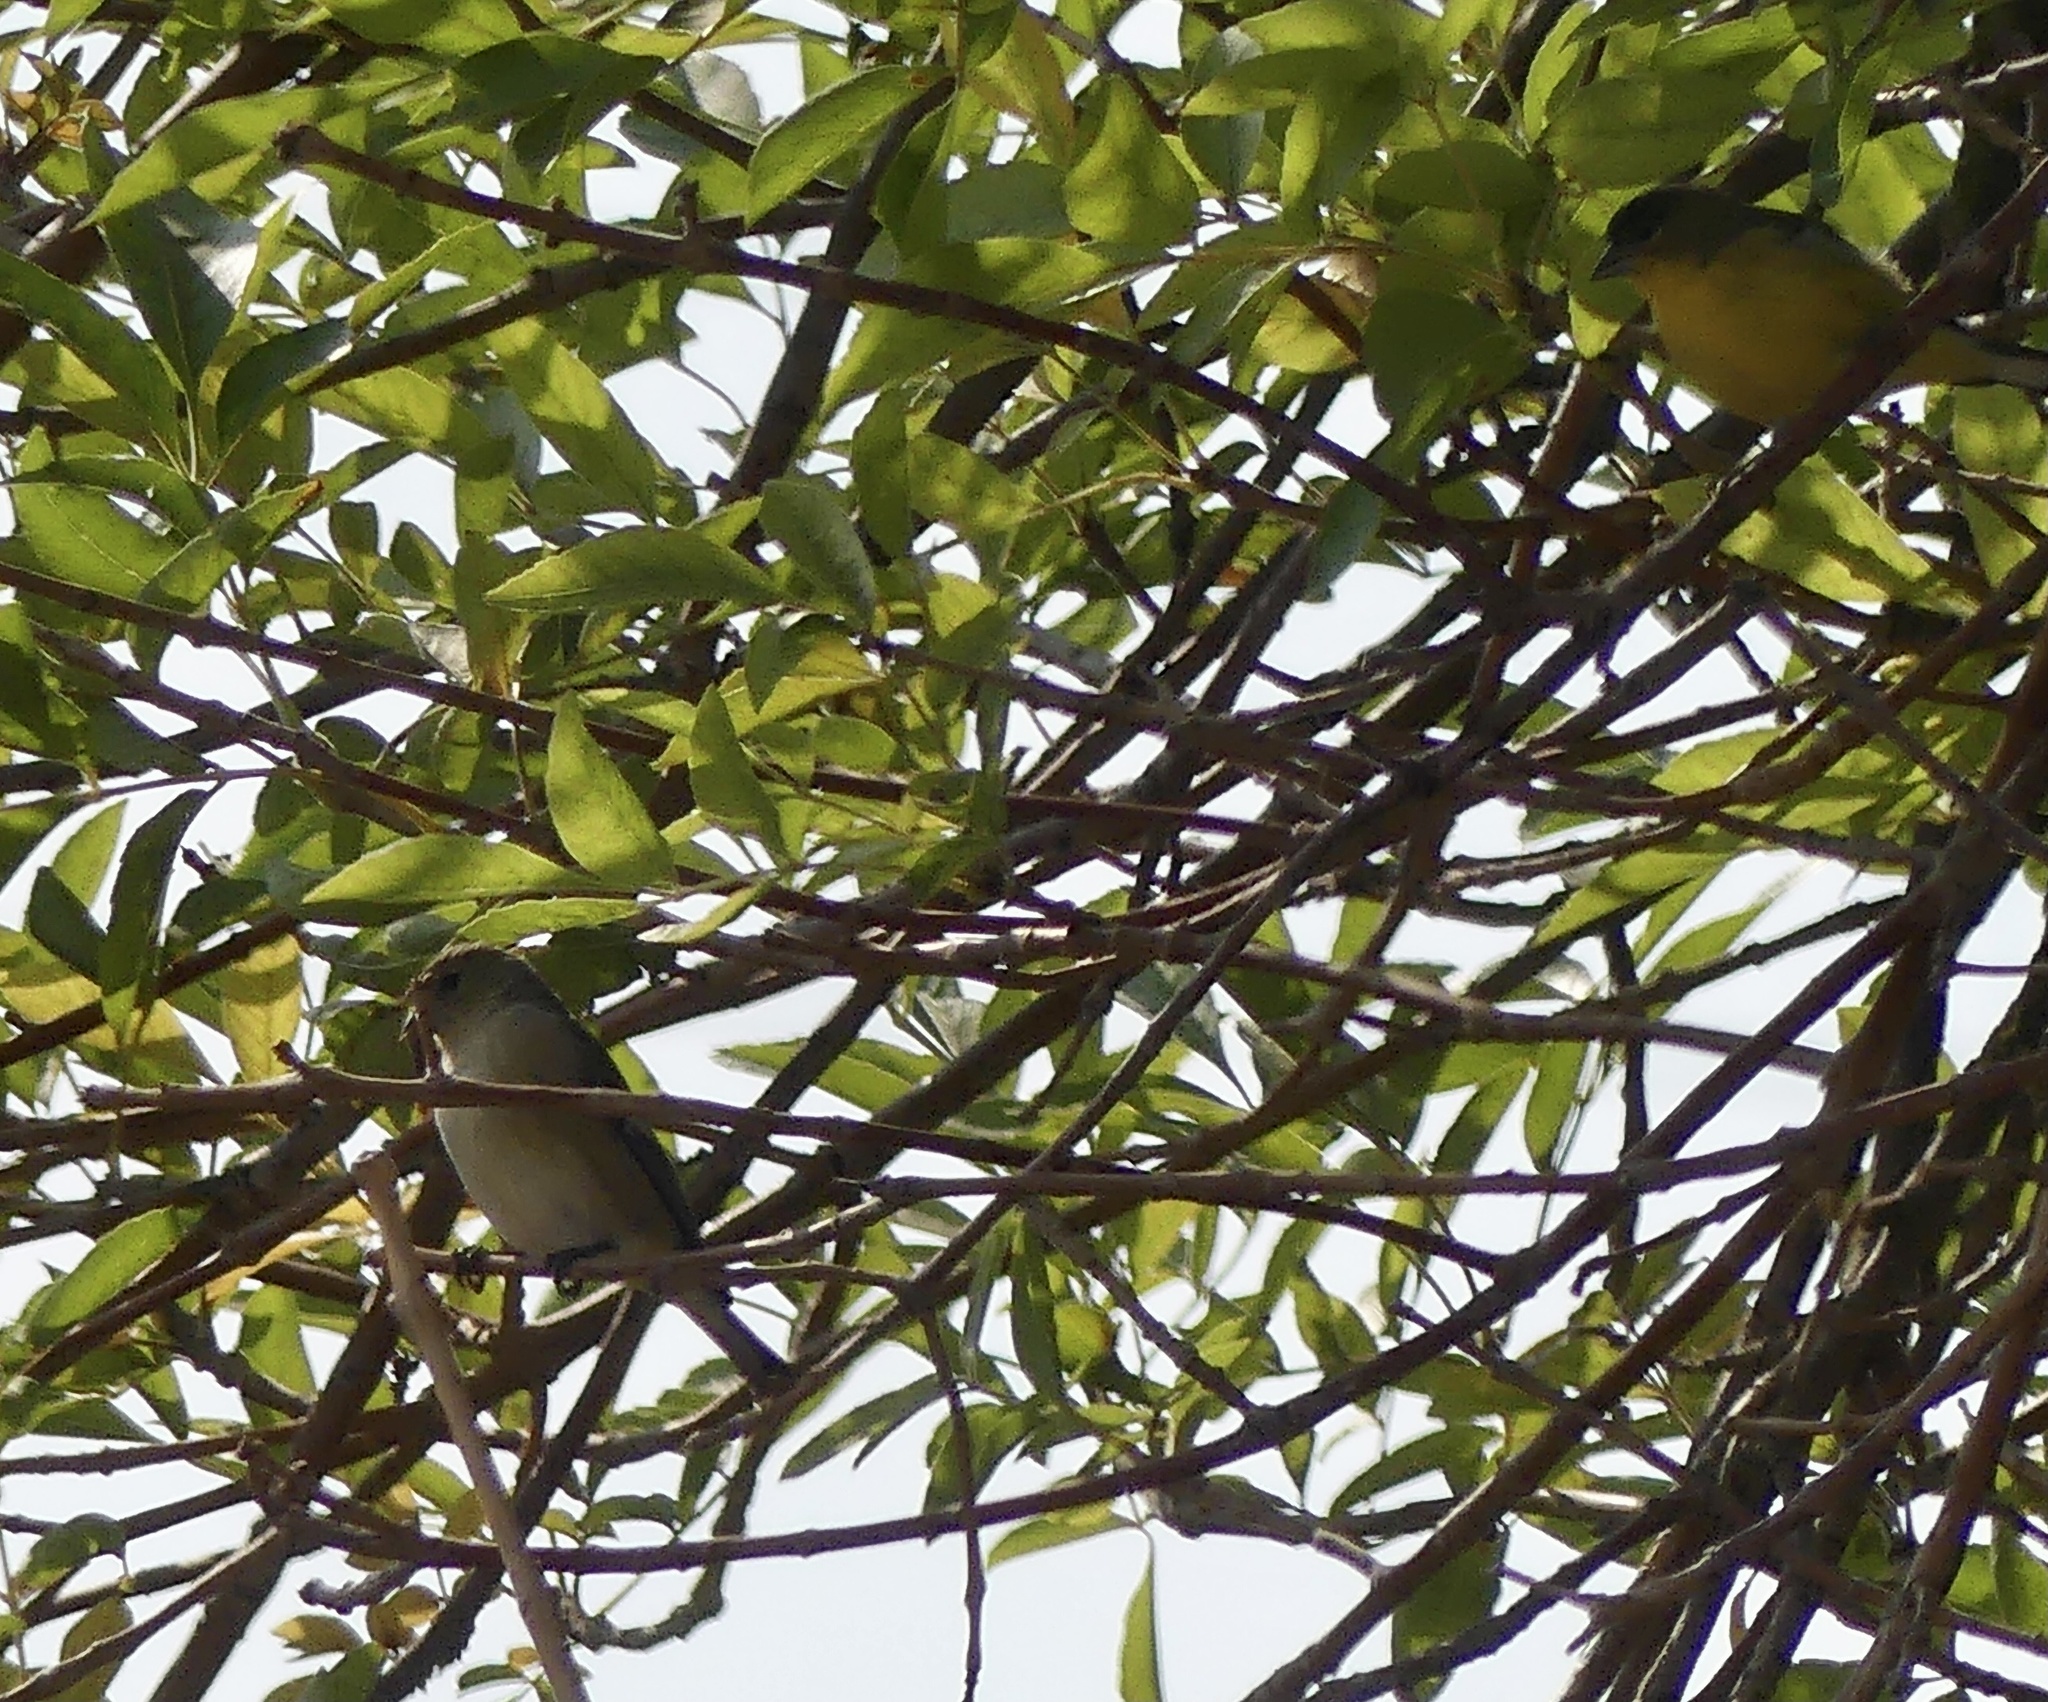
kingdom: Animalia
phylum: Chordata
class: Aves
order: Passeriformes
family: Fringillidae
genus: Spinus
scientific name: Spinus psaltria
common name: Lesser goldfinch
